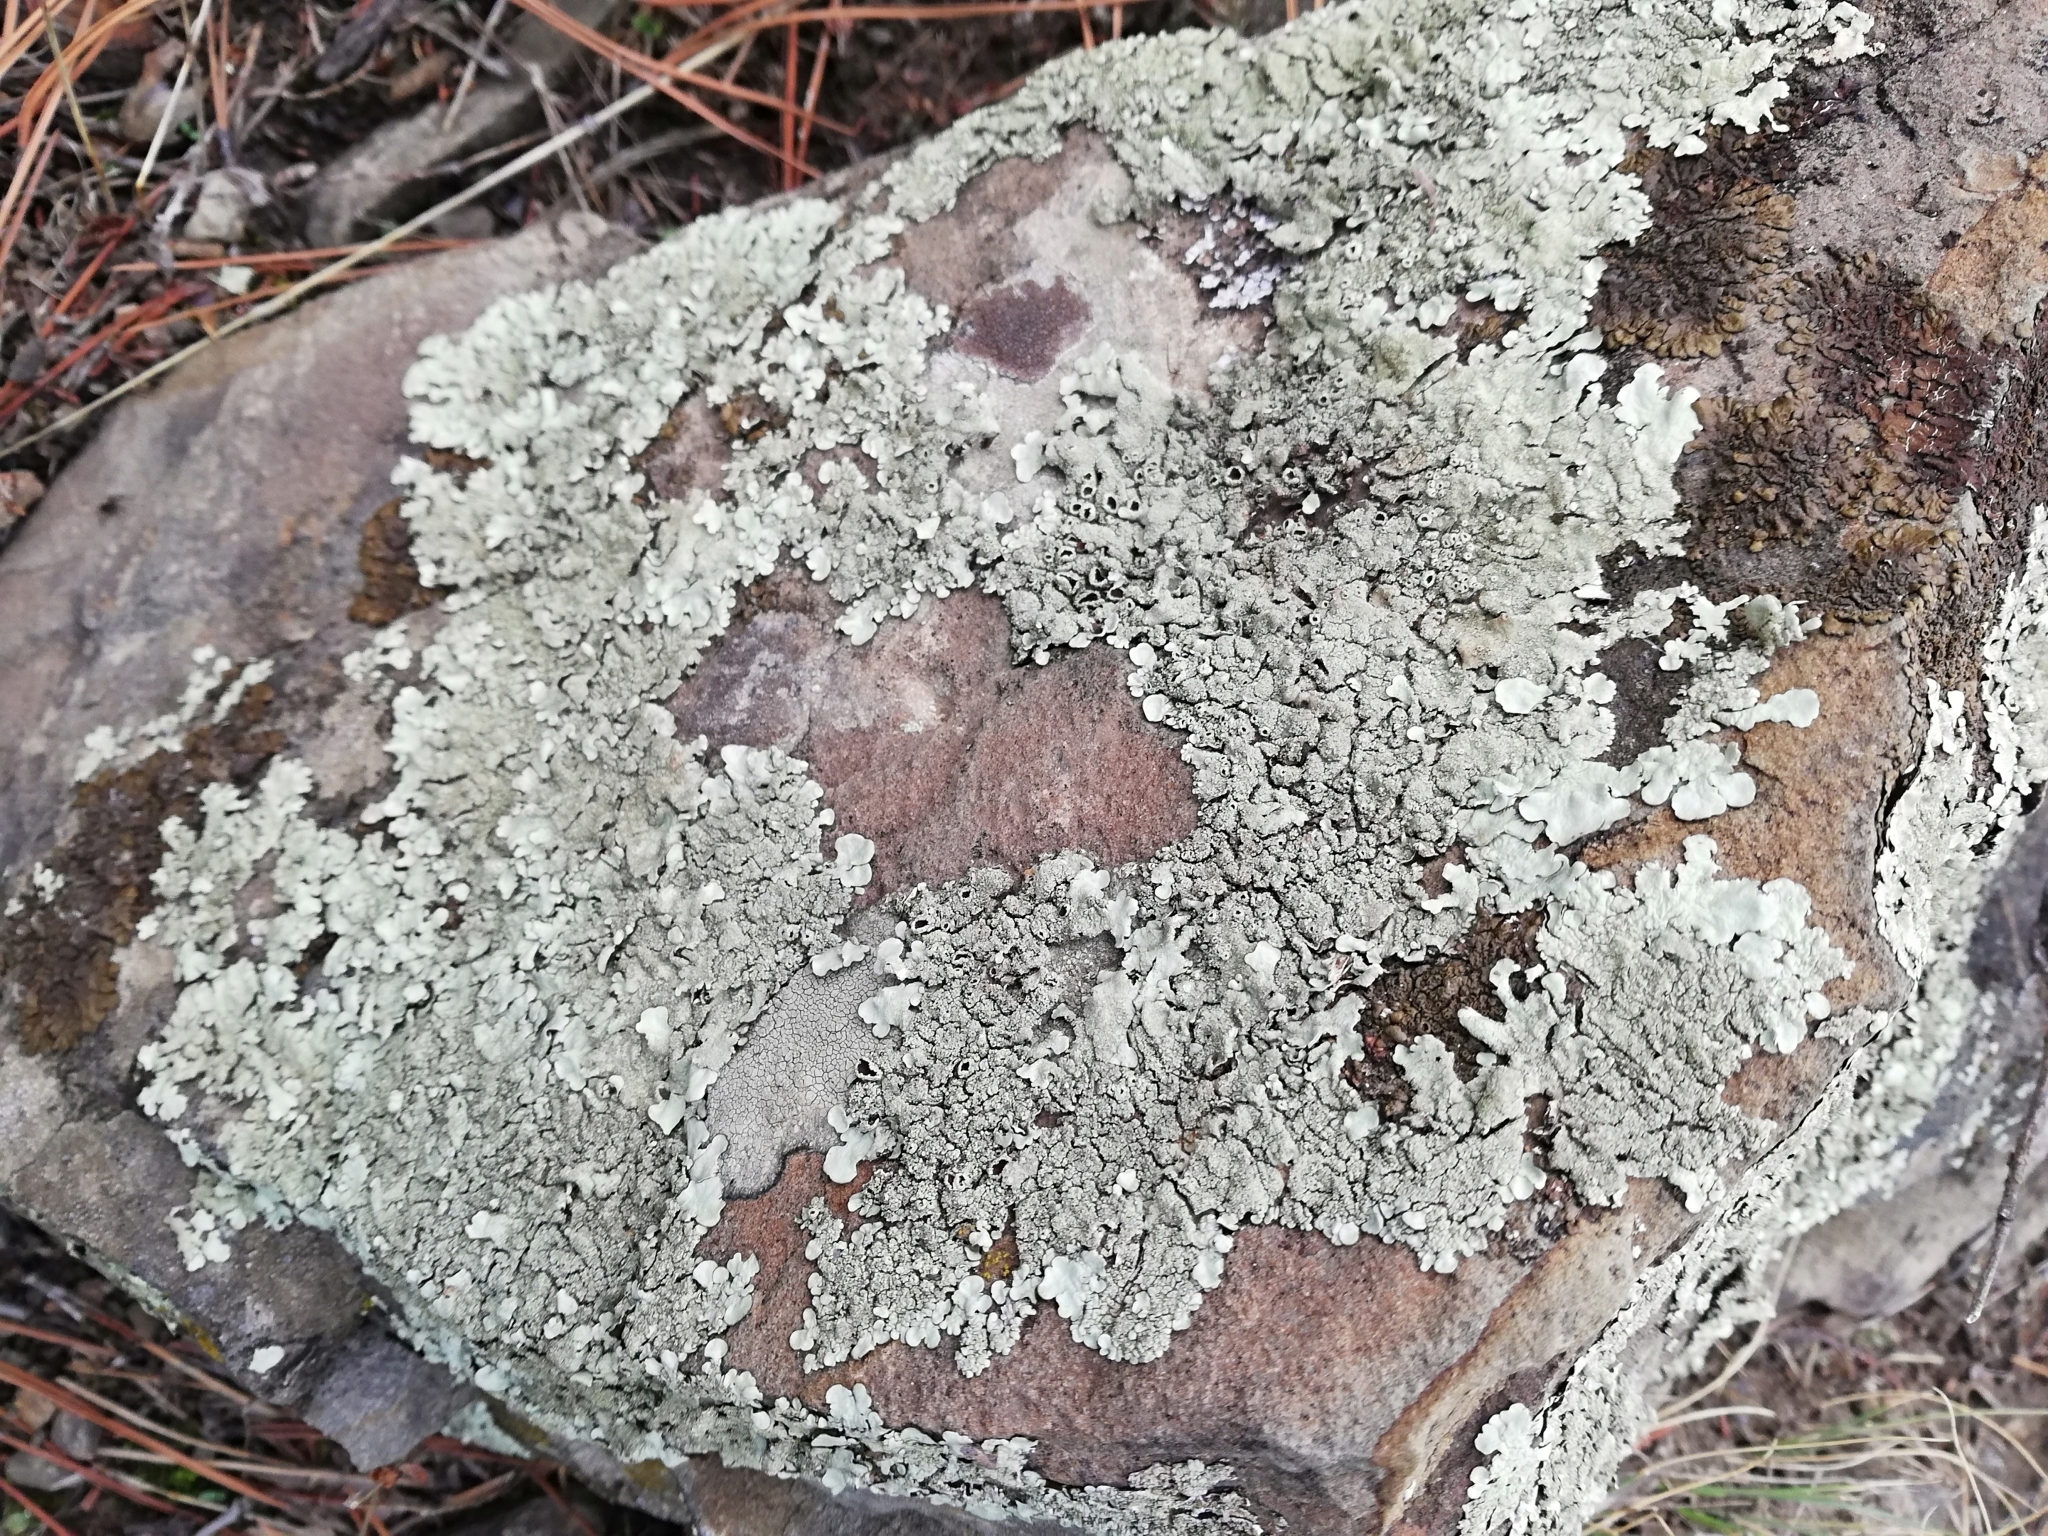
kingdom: Fungi
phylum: Ascomycota
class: Lecanoromycetes
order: Lecanorales
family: Parmeliaceae
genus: Xanthoparmelia
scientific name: Xanthoparmelia conspersa
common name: Peppered rock shield
